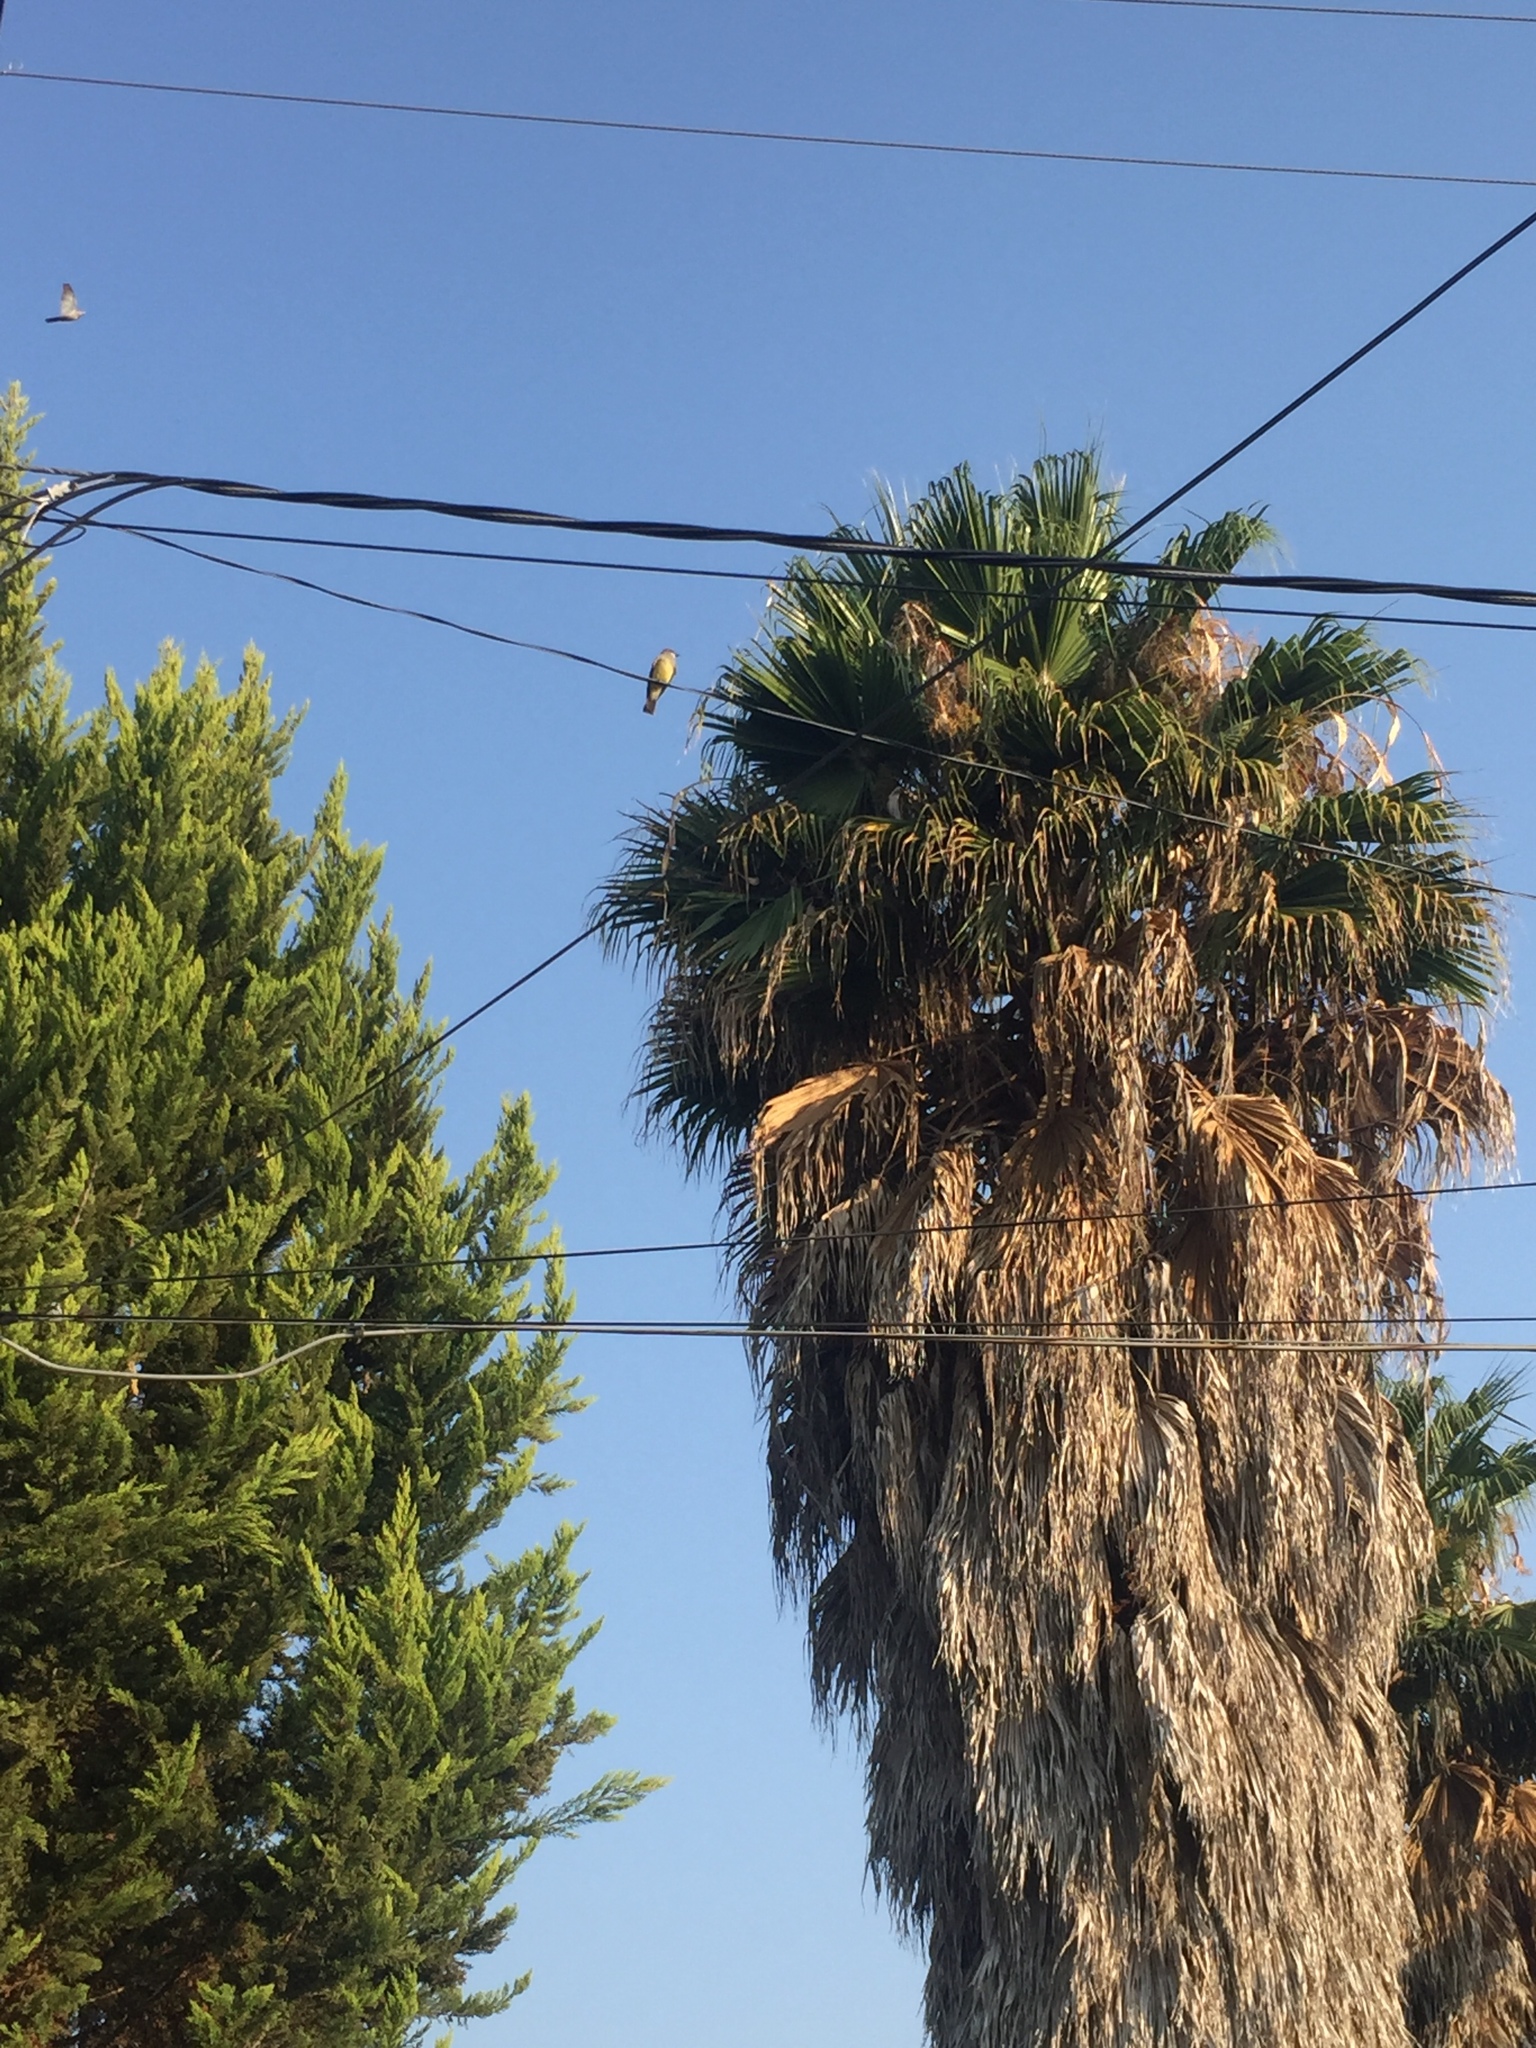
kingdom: Animalia
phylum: Chordata
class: Aves
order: Passeriformes
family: Tyrannidae
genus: Tyrannus
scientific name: Tyrannus vociferans
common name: Cassin's kingbird
